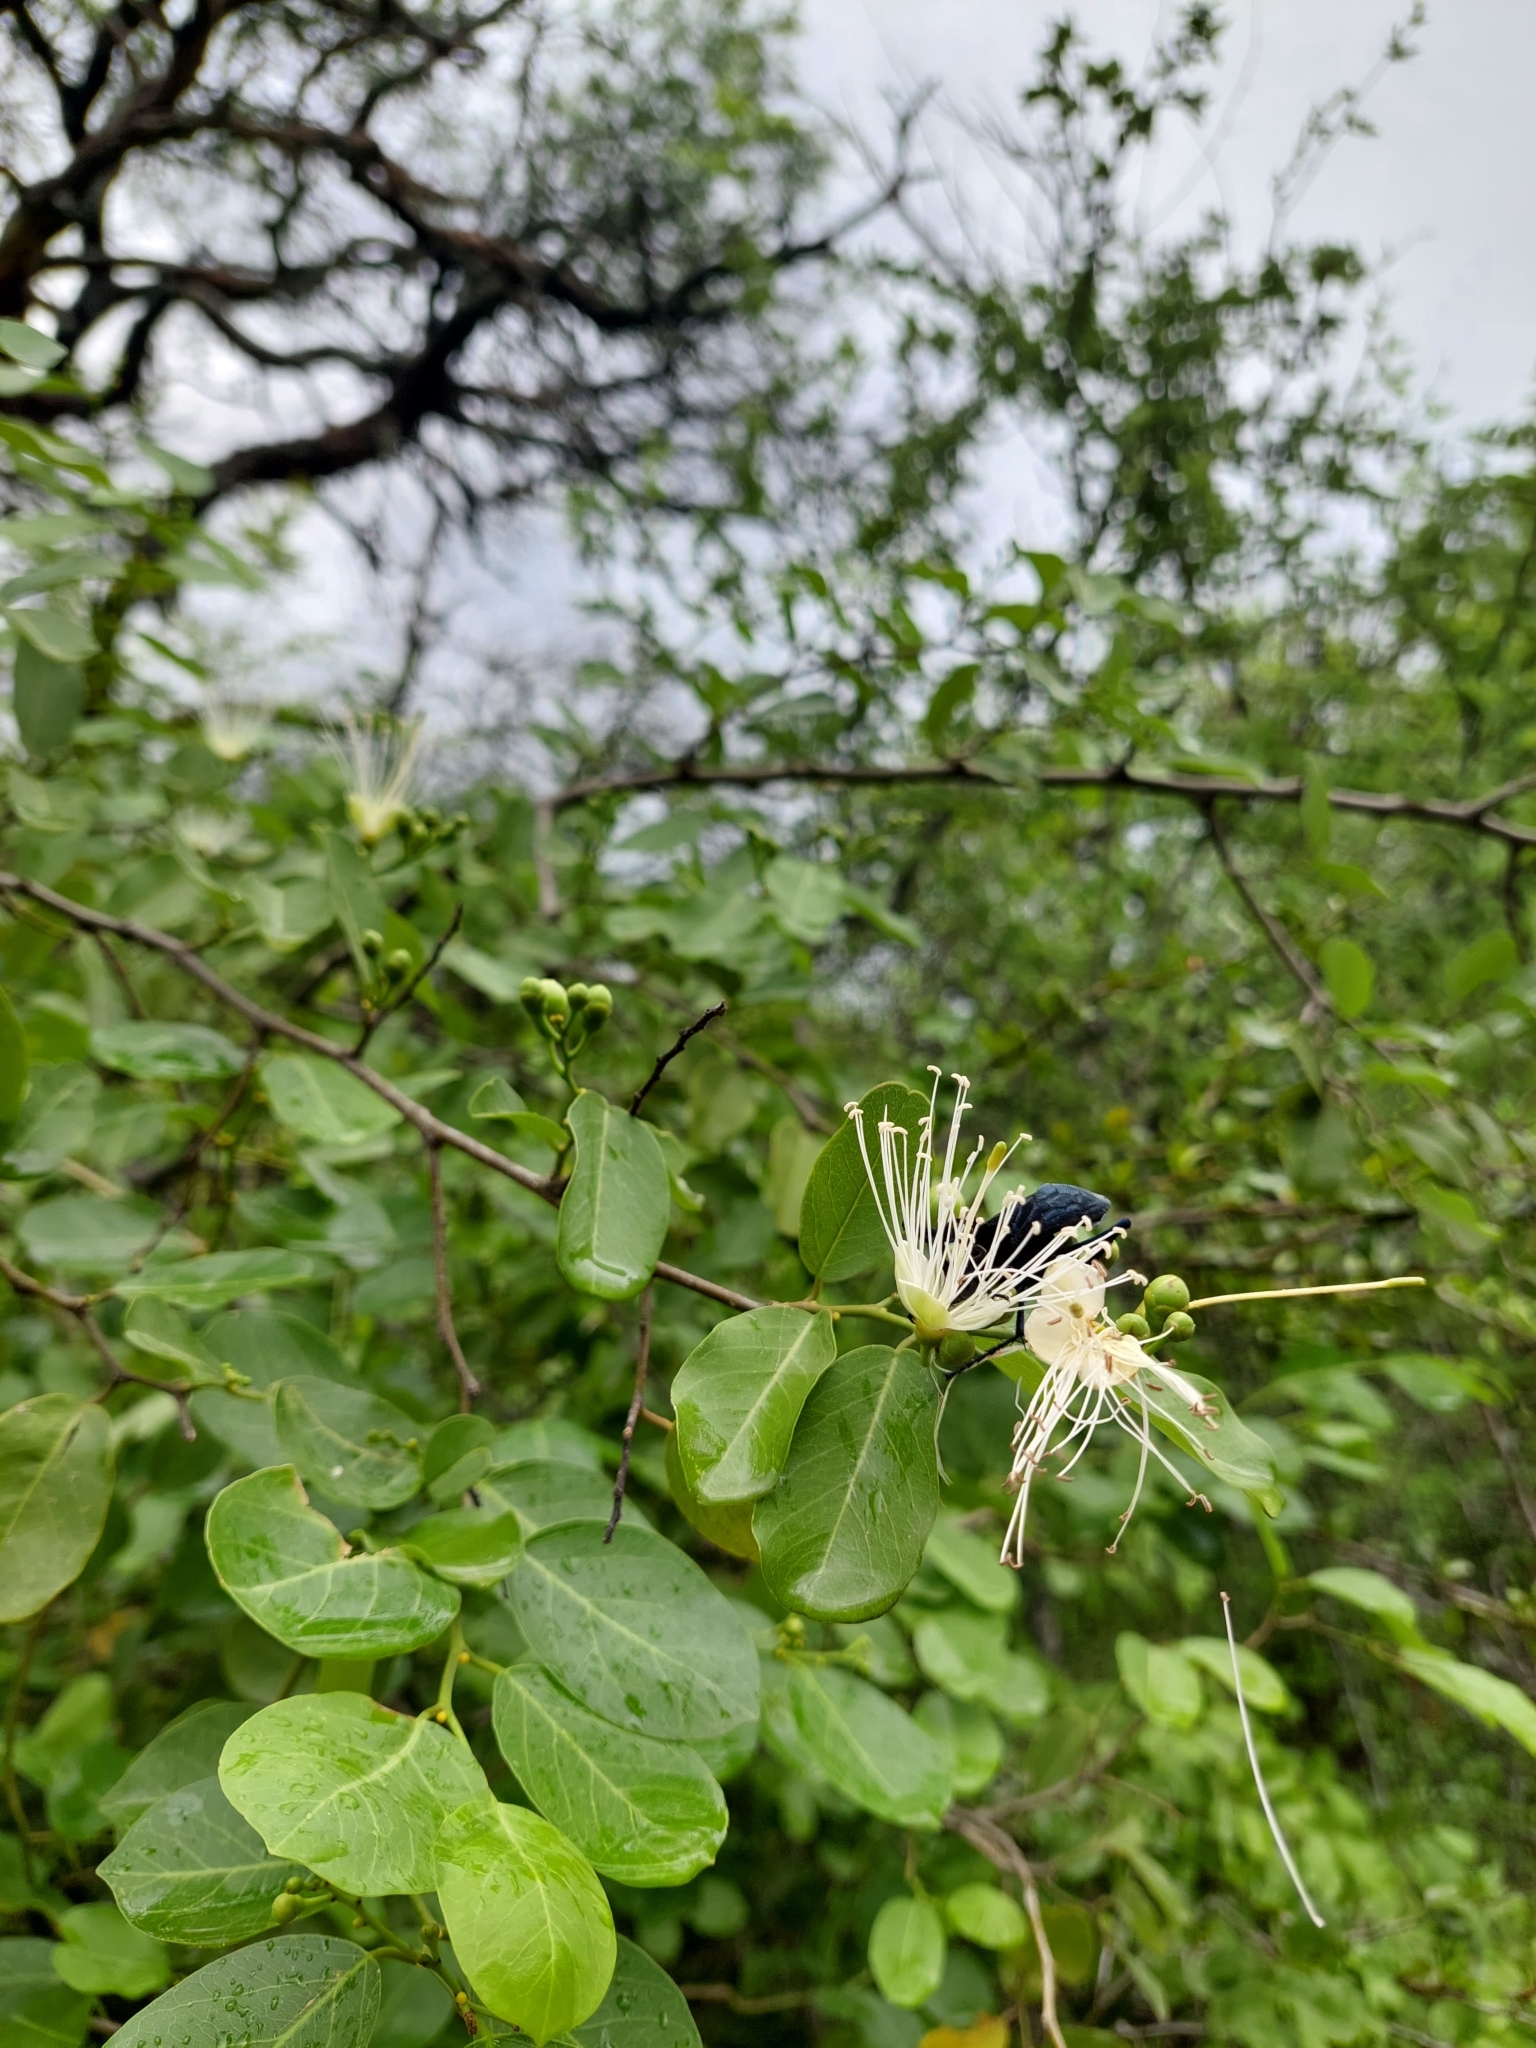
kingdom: Plantae
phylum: Tracheophyta
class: Magnoliopsida
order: Brassicales
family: Capparaceae
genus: Cynophalla
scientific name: Cynophalla retusa
